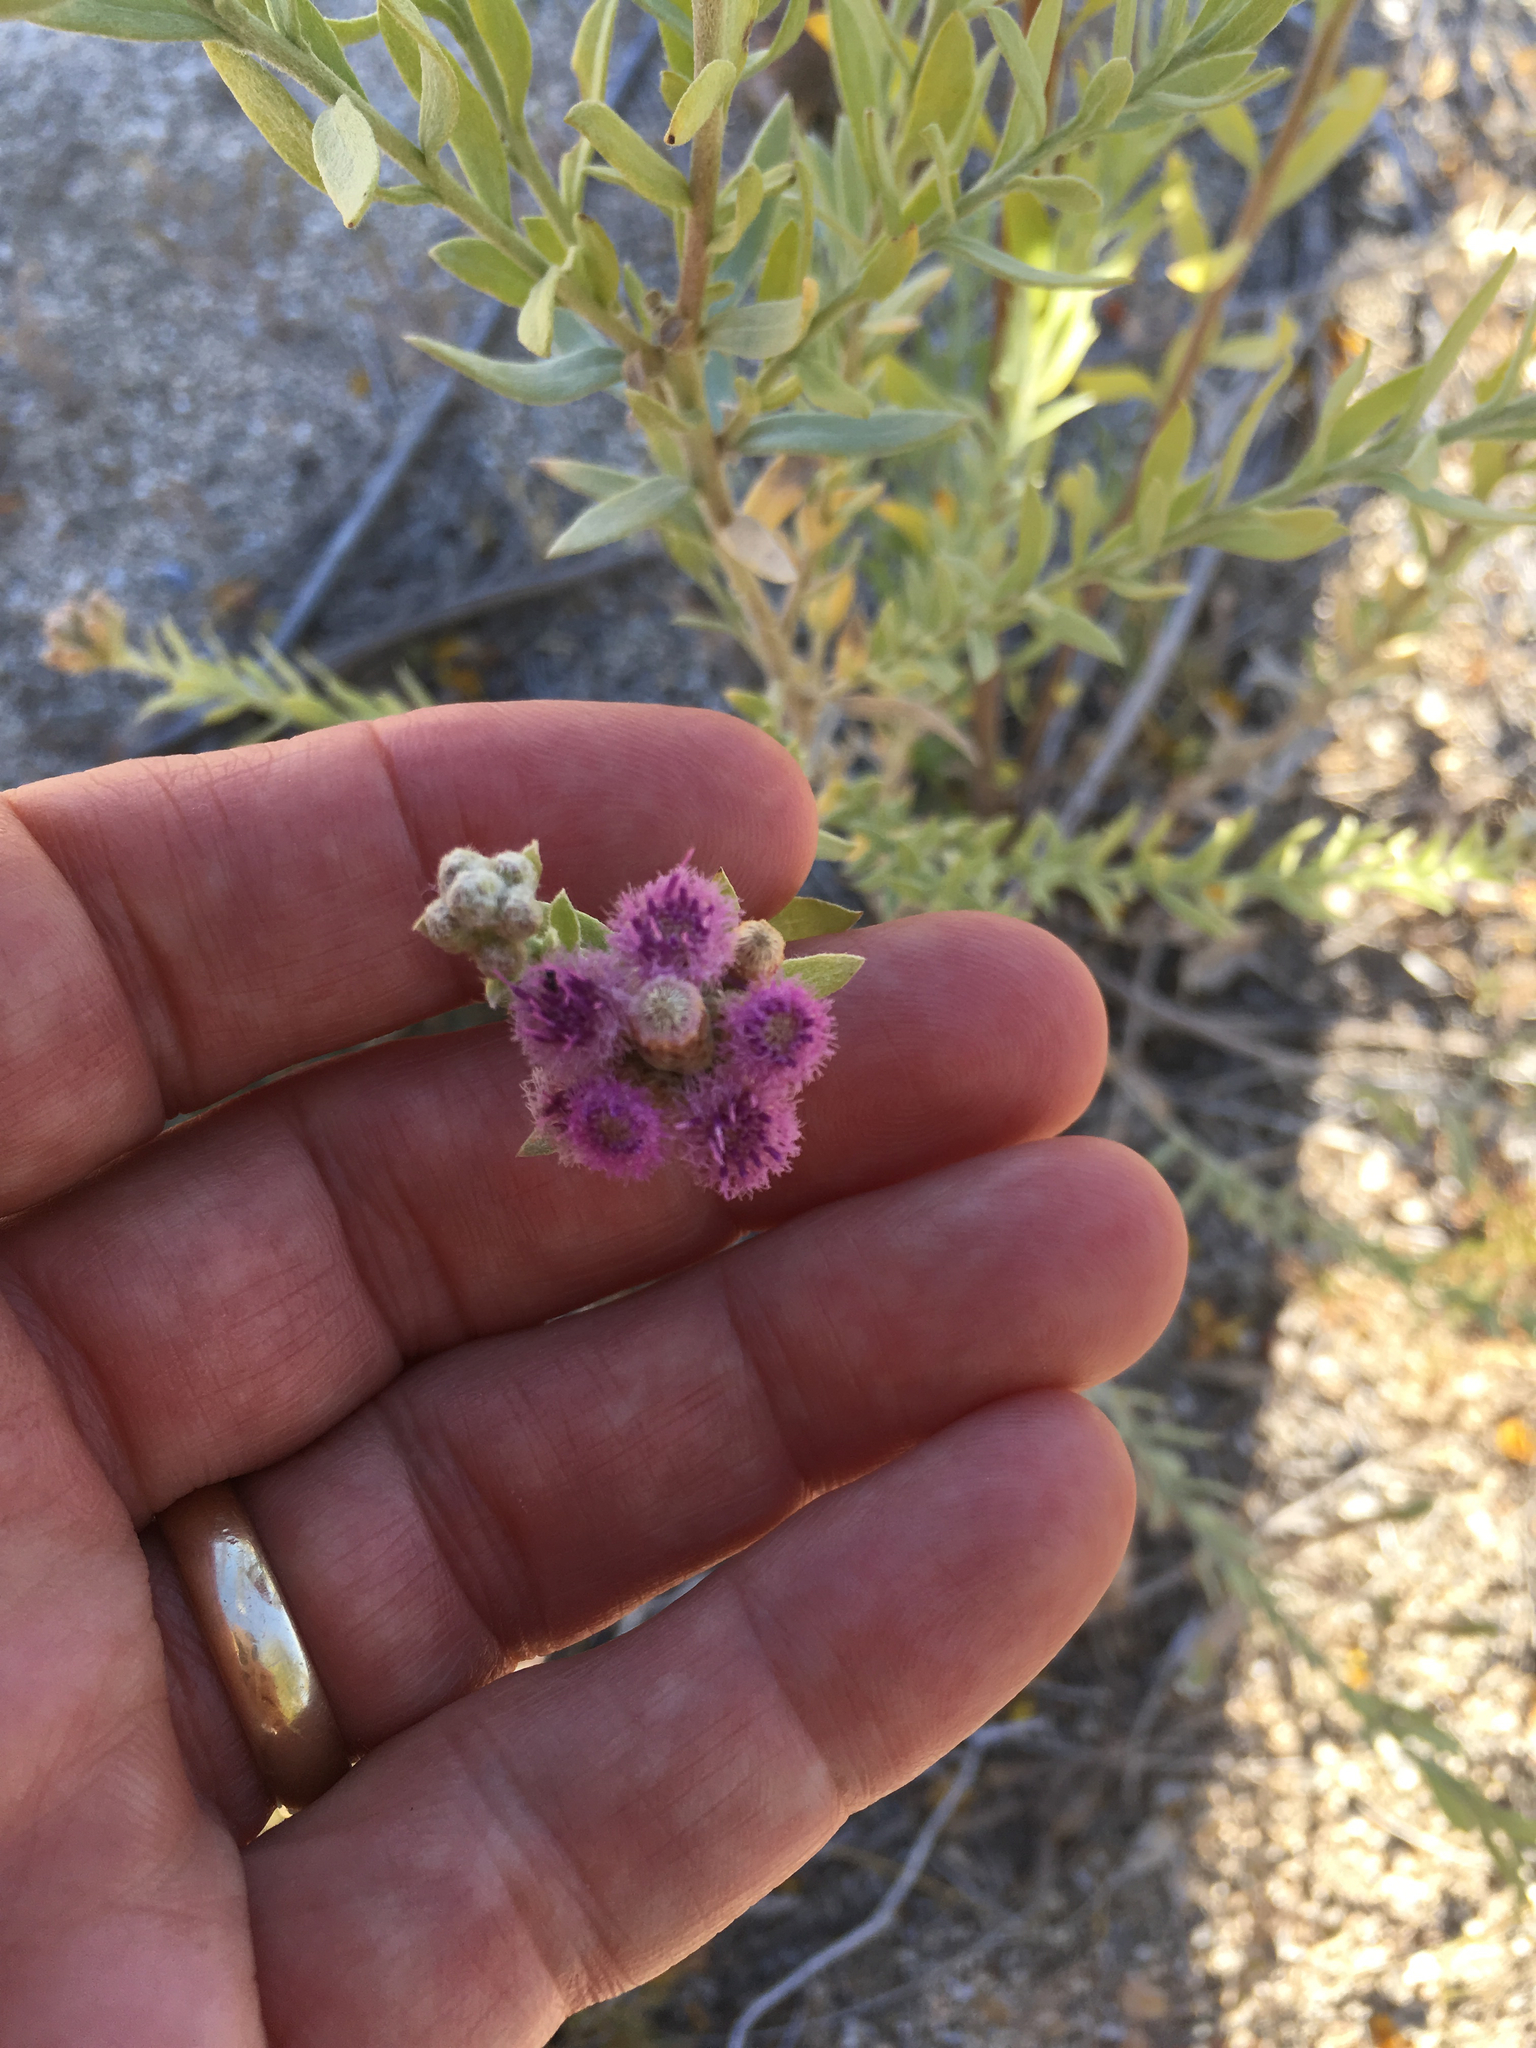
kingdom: Plantae
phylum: Tracheophyta
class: Magnoliopsida
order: Asterales
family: Asteraceae
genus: Pluchea
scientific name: Pluchea sericea
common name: Arrow-weed
